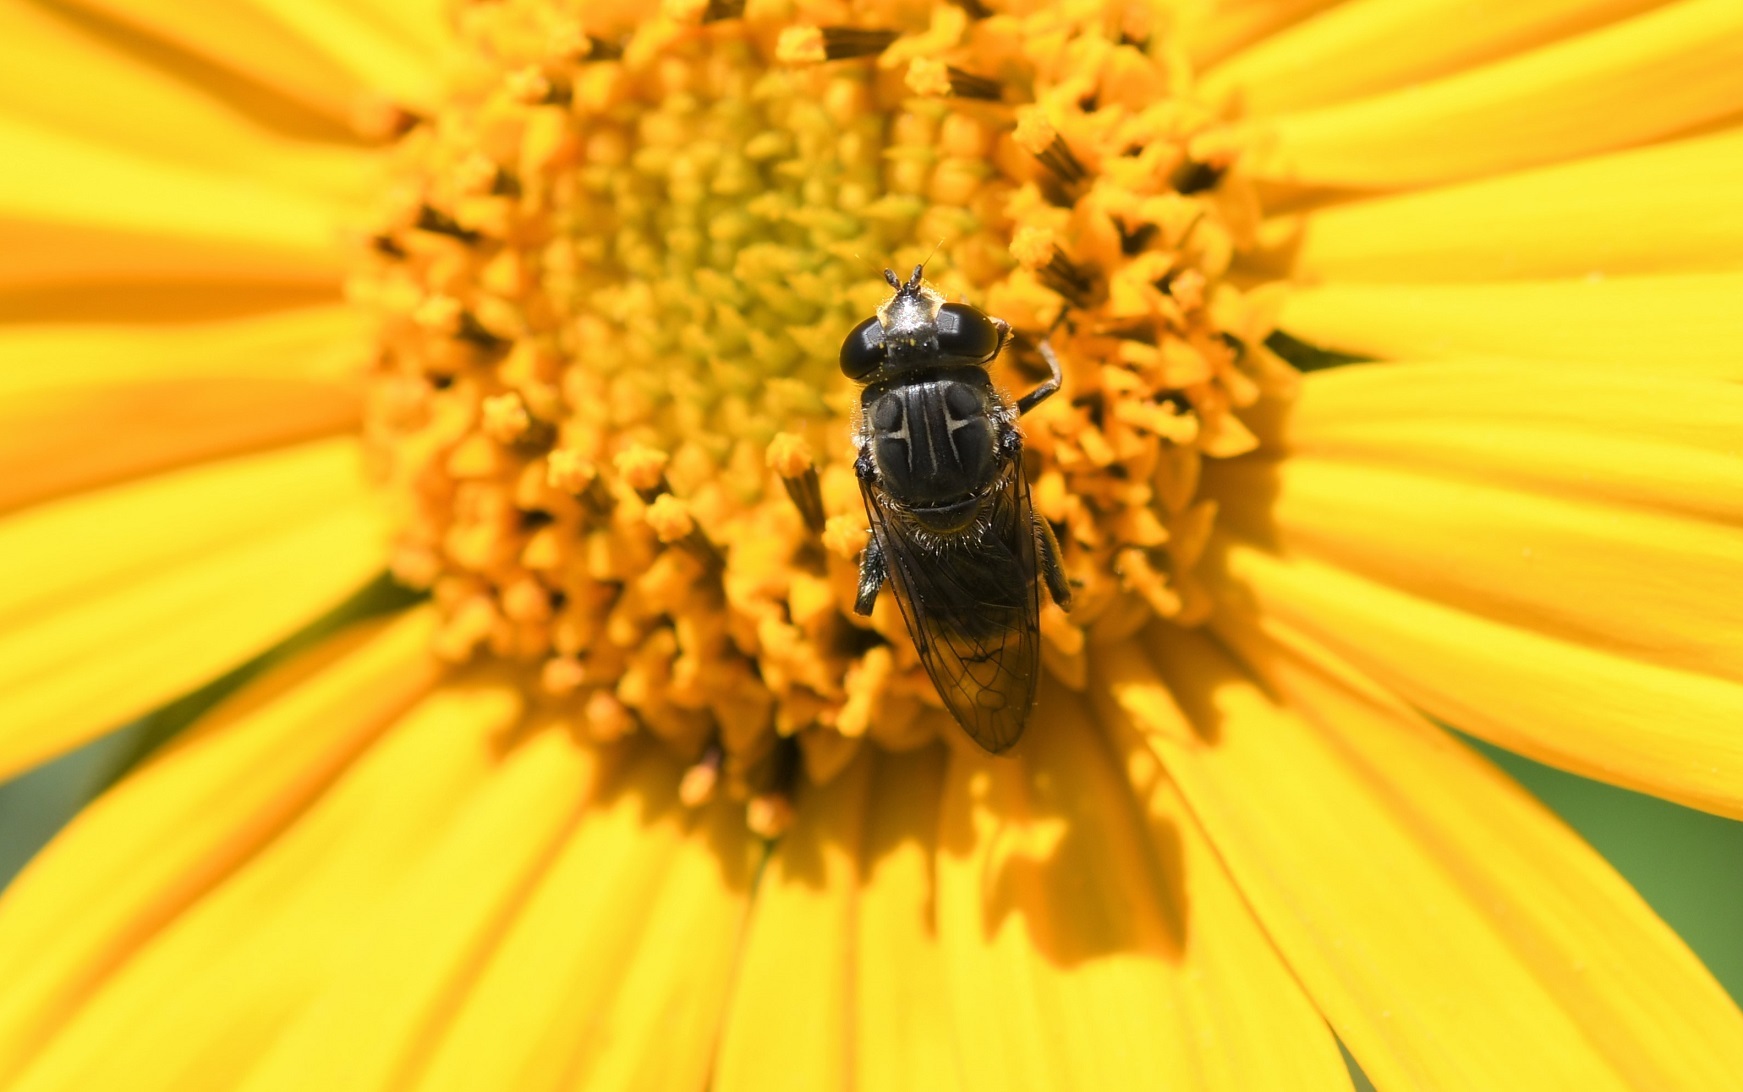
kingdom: Animalia
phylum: Arthropoda
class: Insecta
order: Diptera
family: Syrphidae
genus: Asemosyrphus
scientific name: Asemosyrphus
